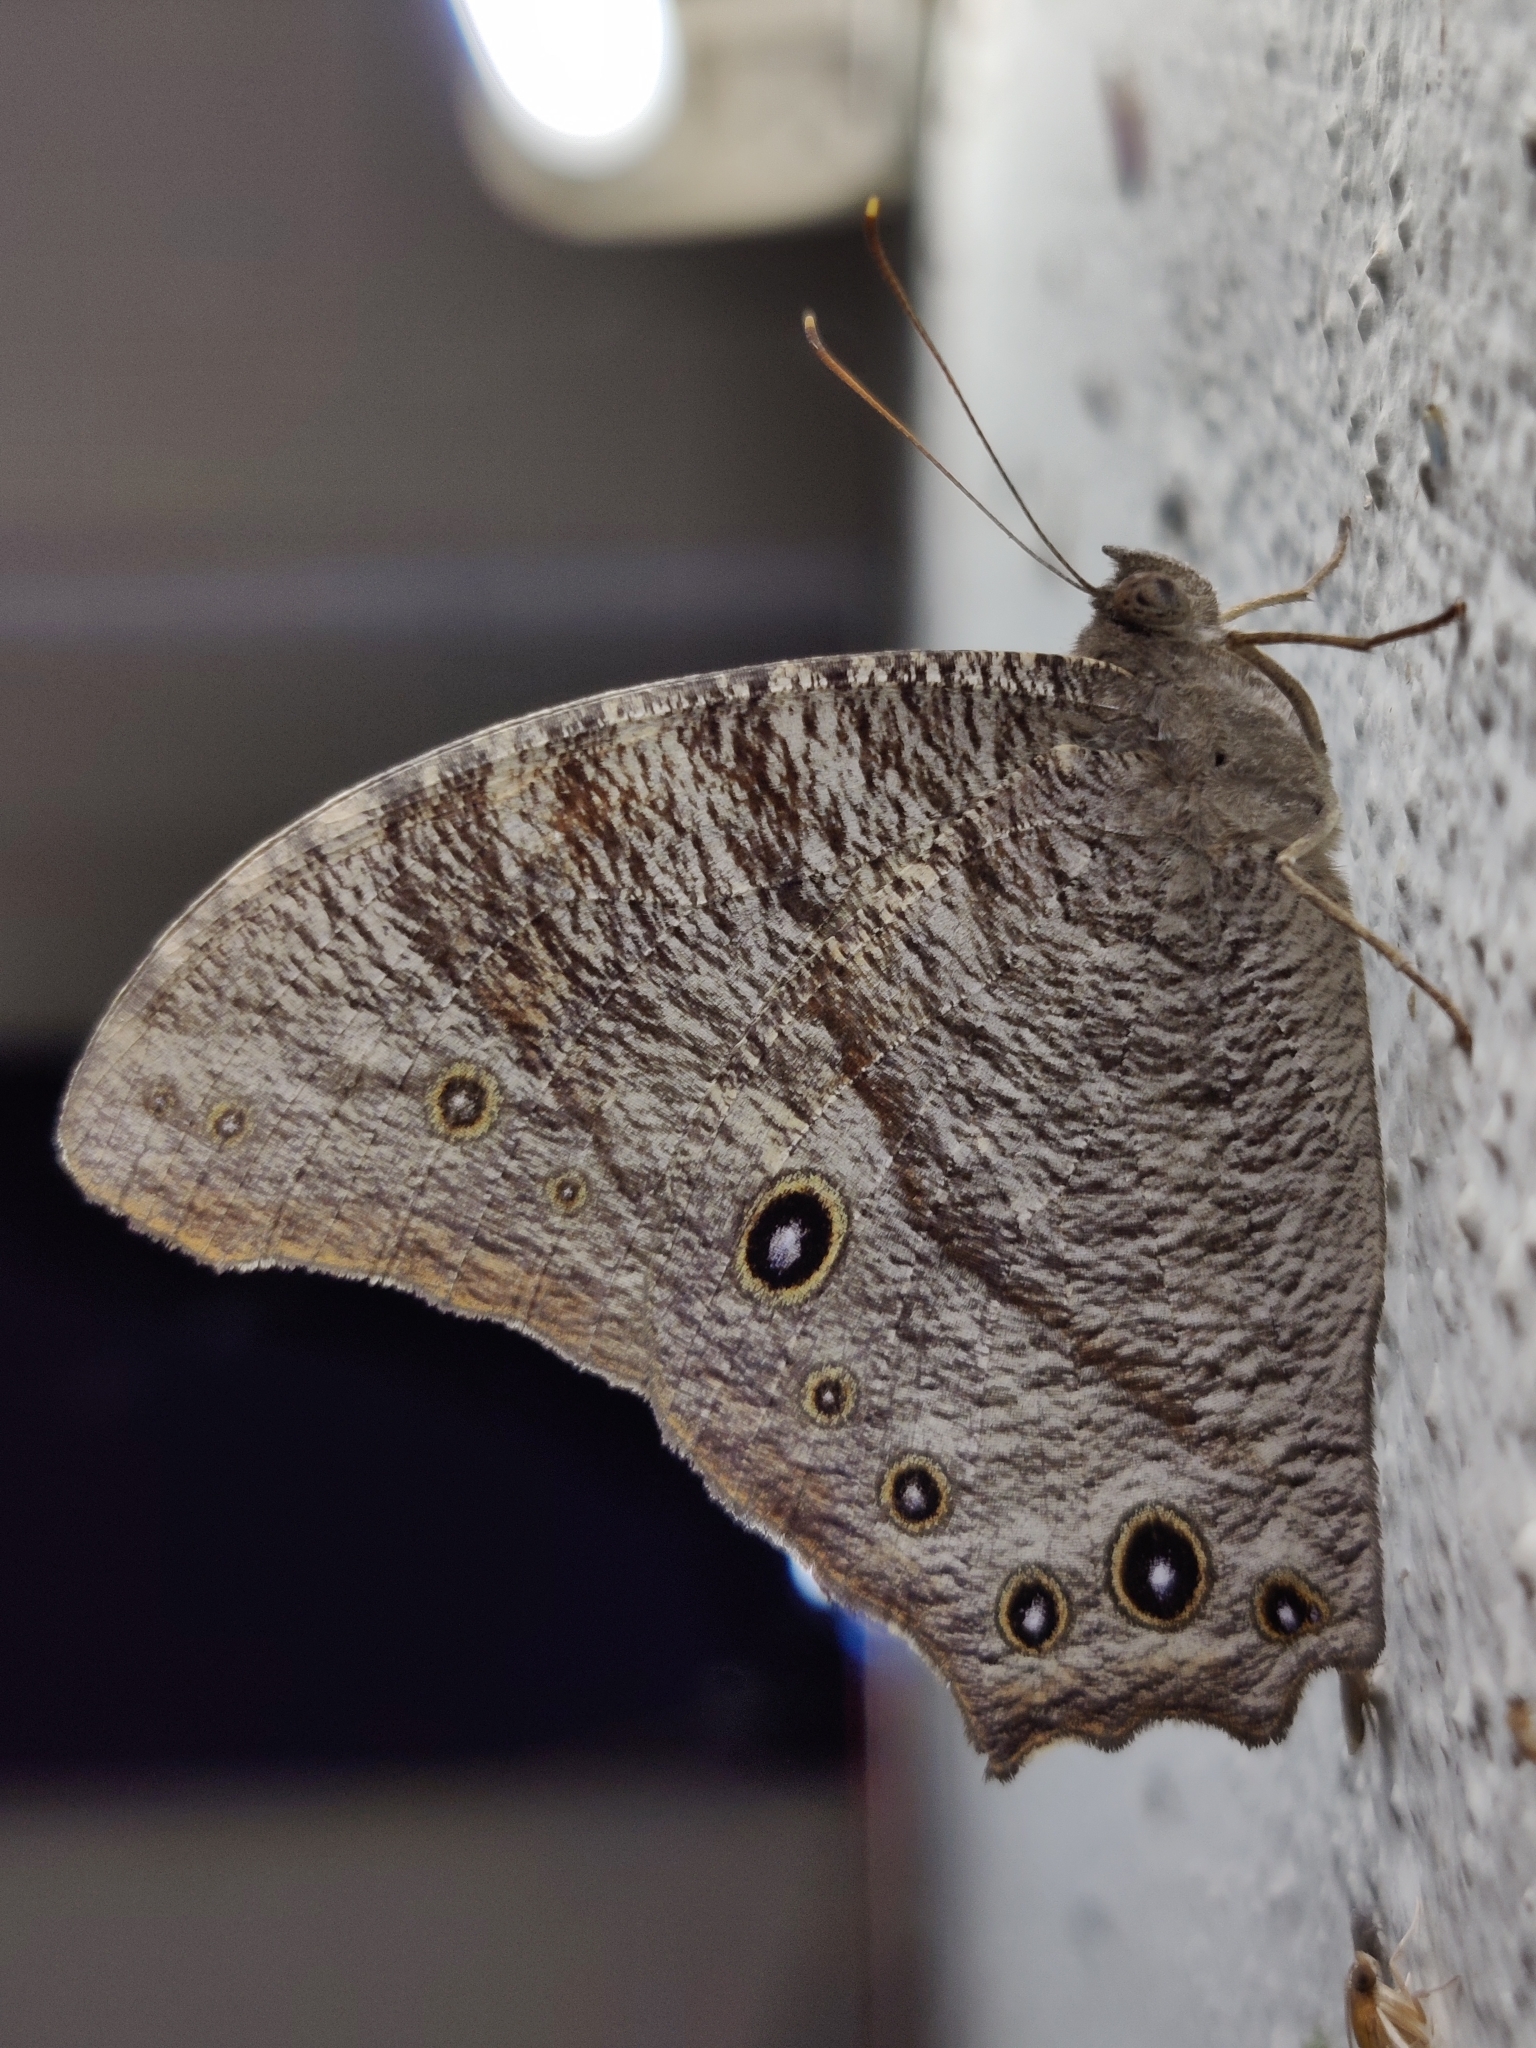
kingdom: Animalia
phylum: Arthropoda
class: Insecta
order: Lepidoptera
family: Nymphalidae
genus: Melanitis
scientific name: Melanitis leda
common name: Twilight brown
